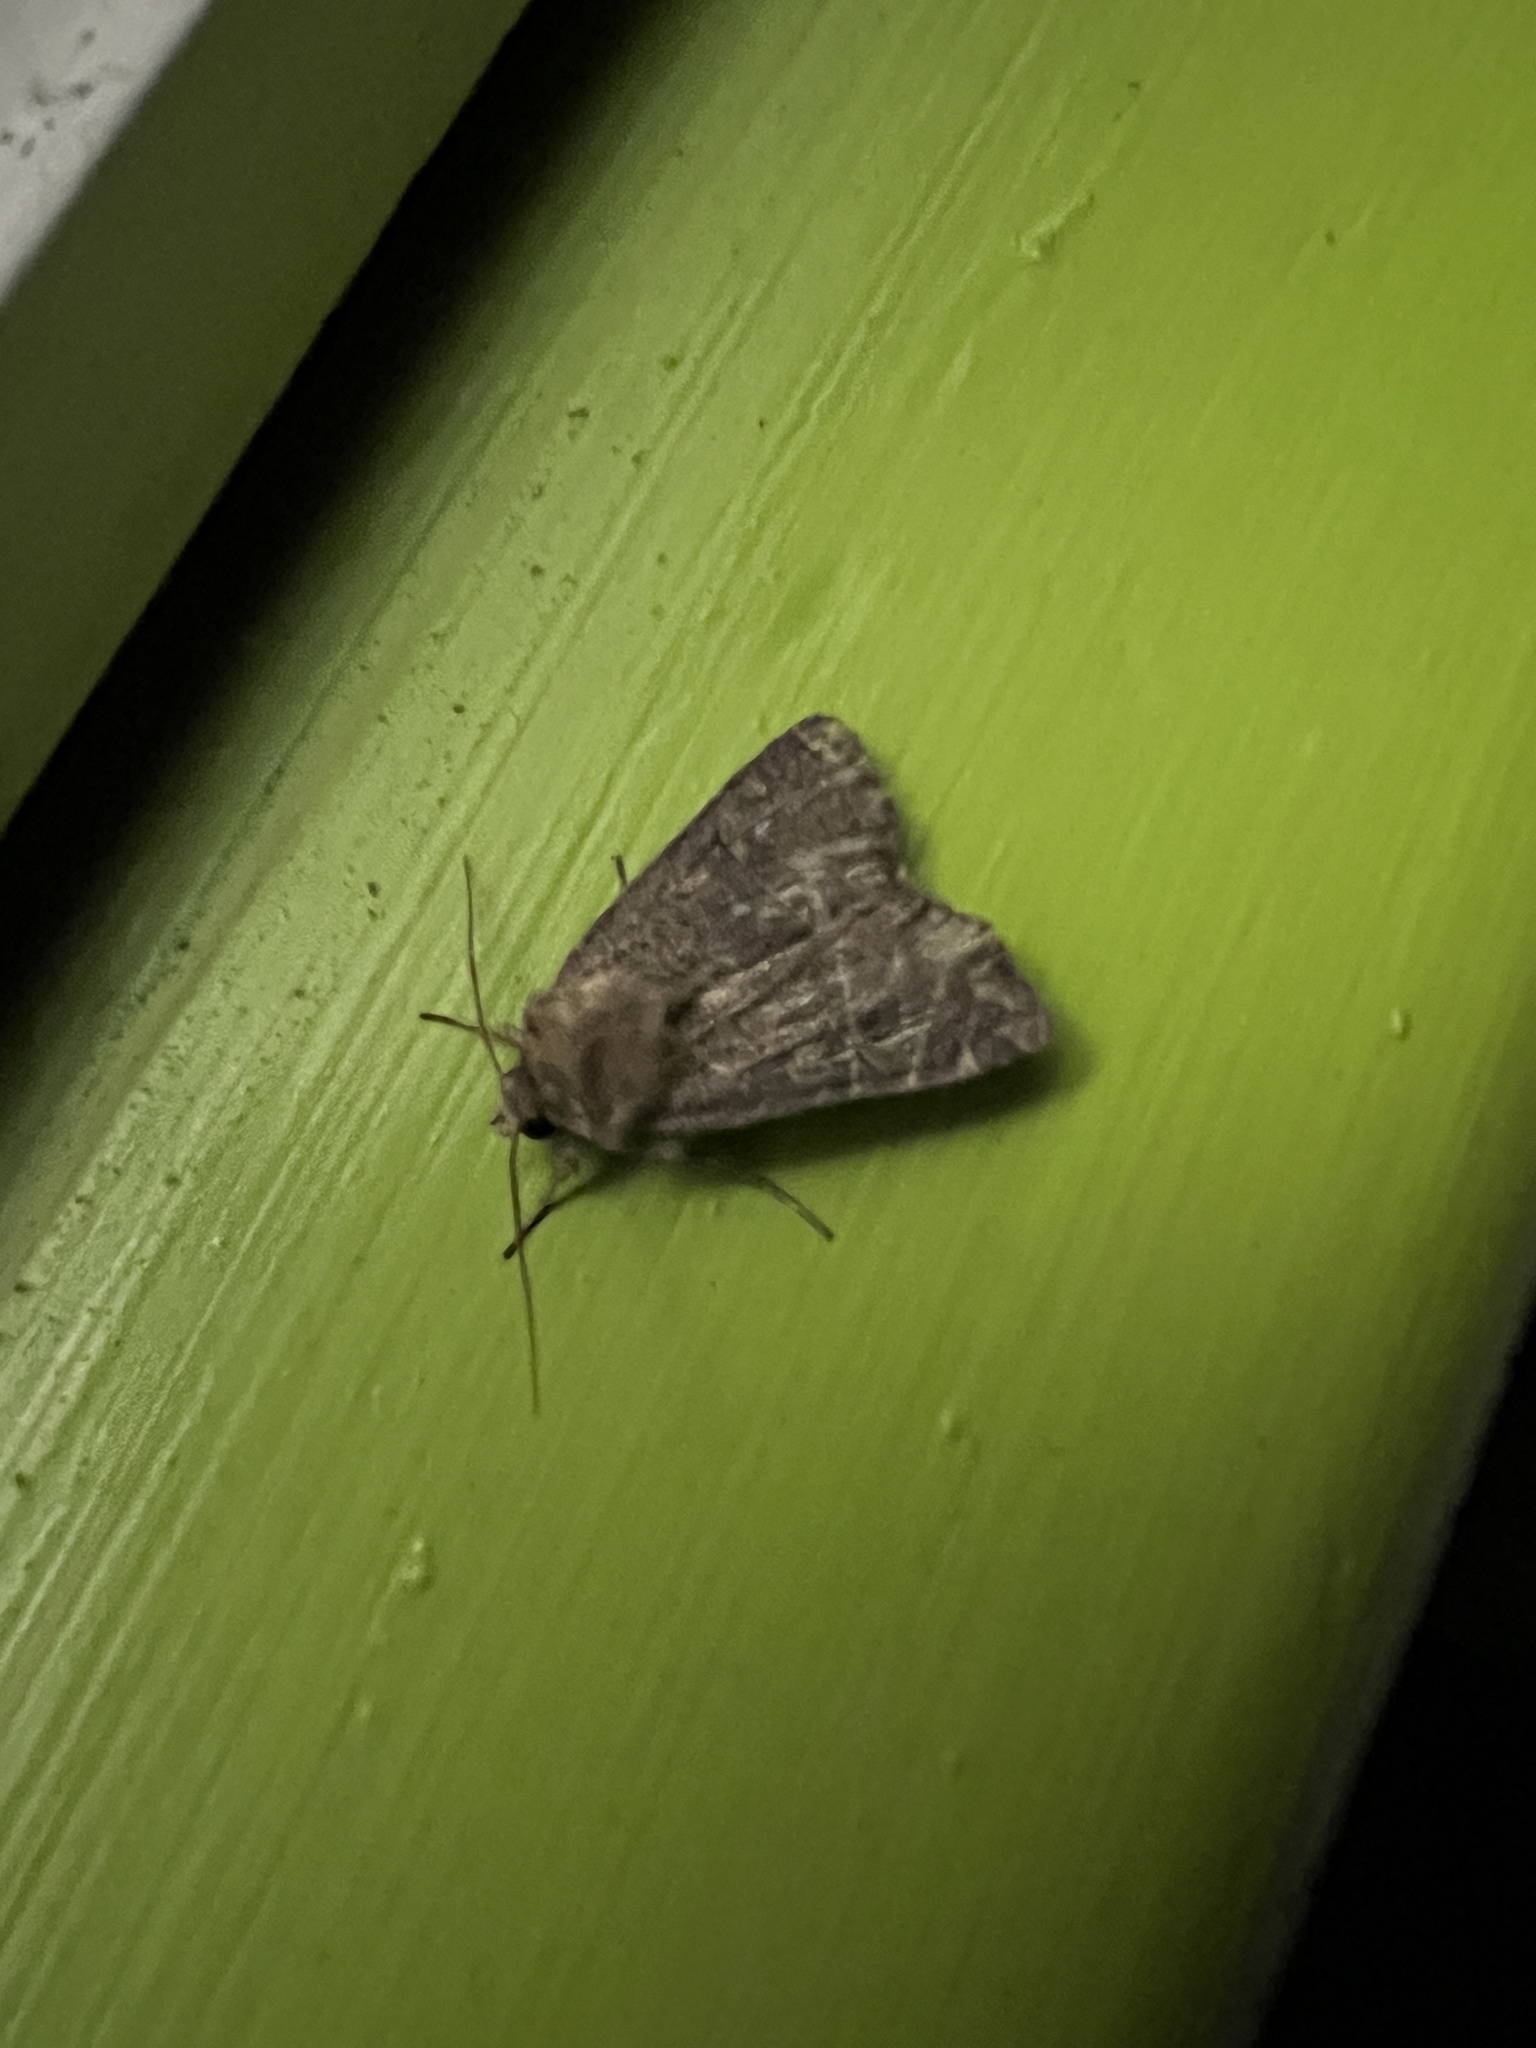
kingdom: Animalia
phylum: Arthropoda
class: Insecta
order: Lepidoptera
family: Noctuidae
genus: Xestia
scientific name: Xestia xanthographa
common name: Square-spot rustic
